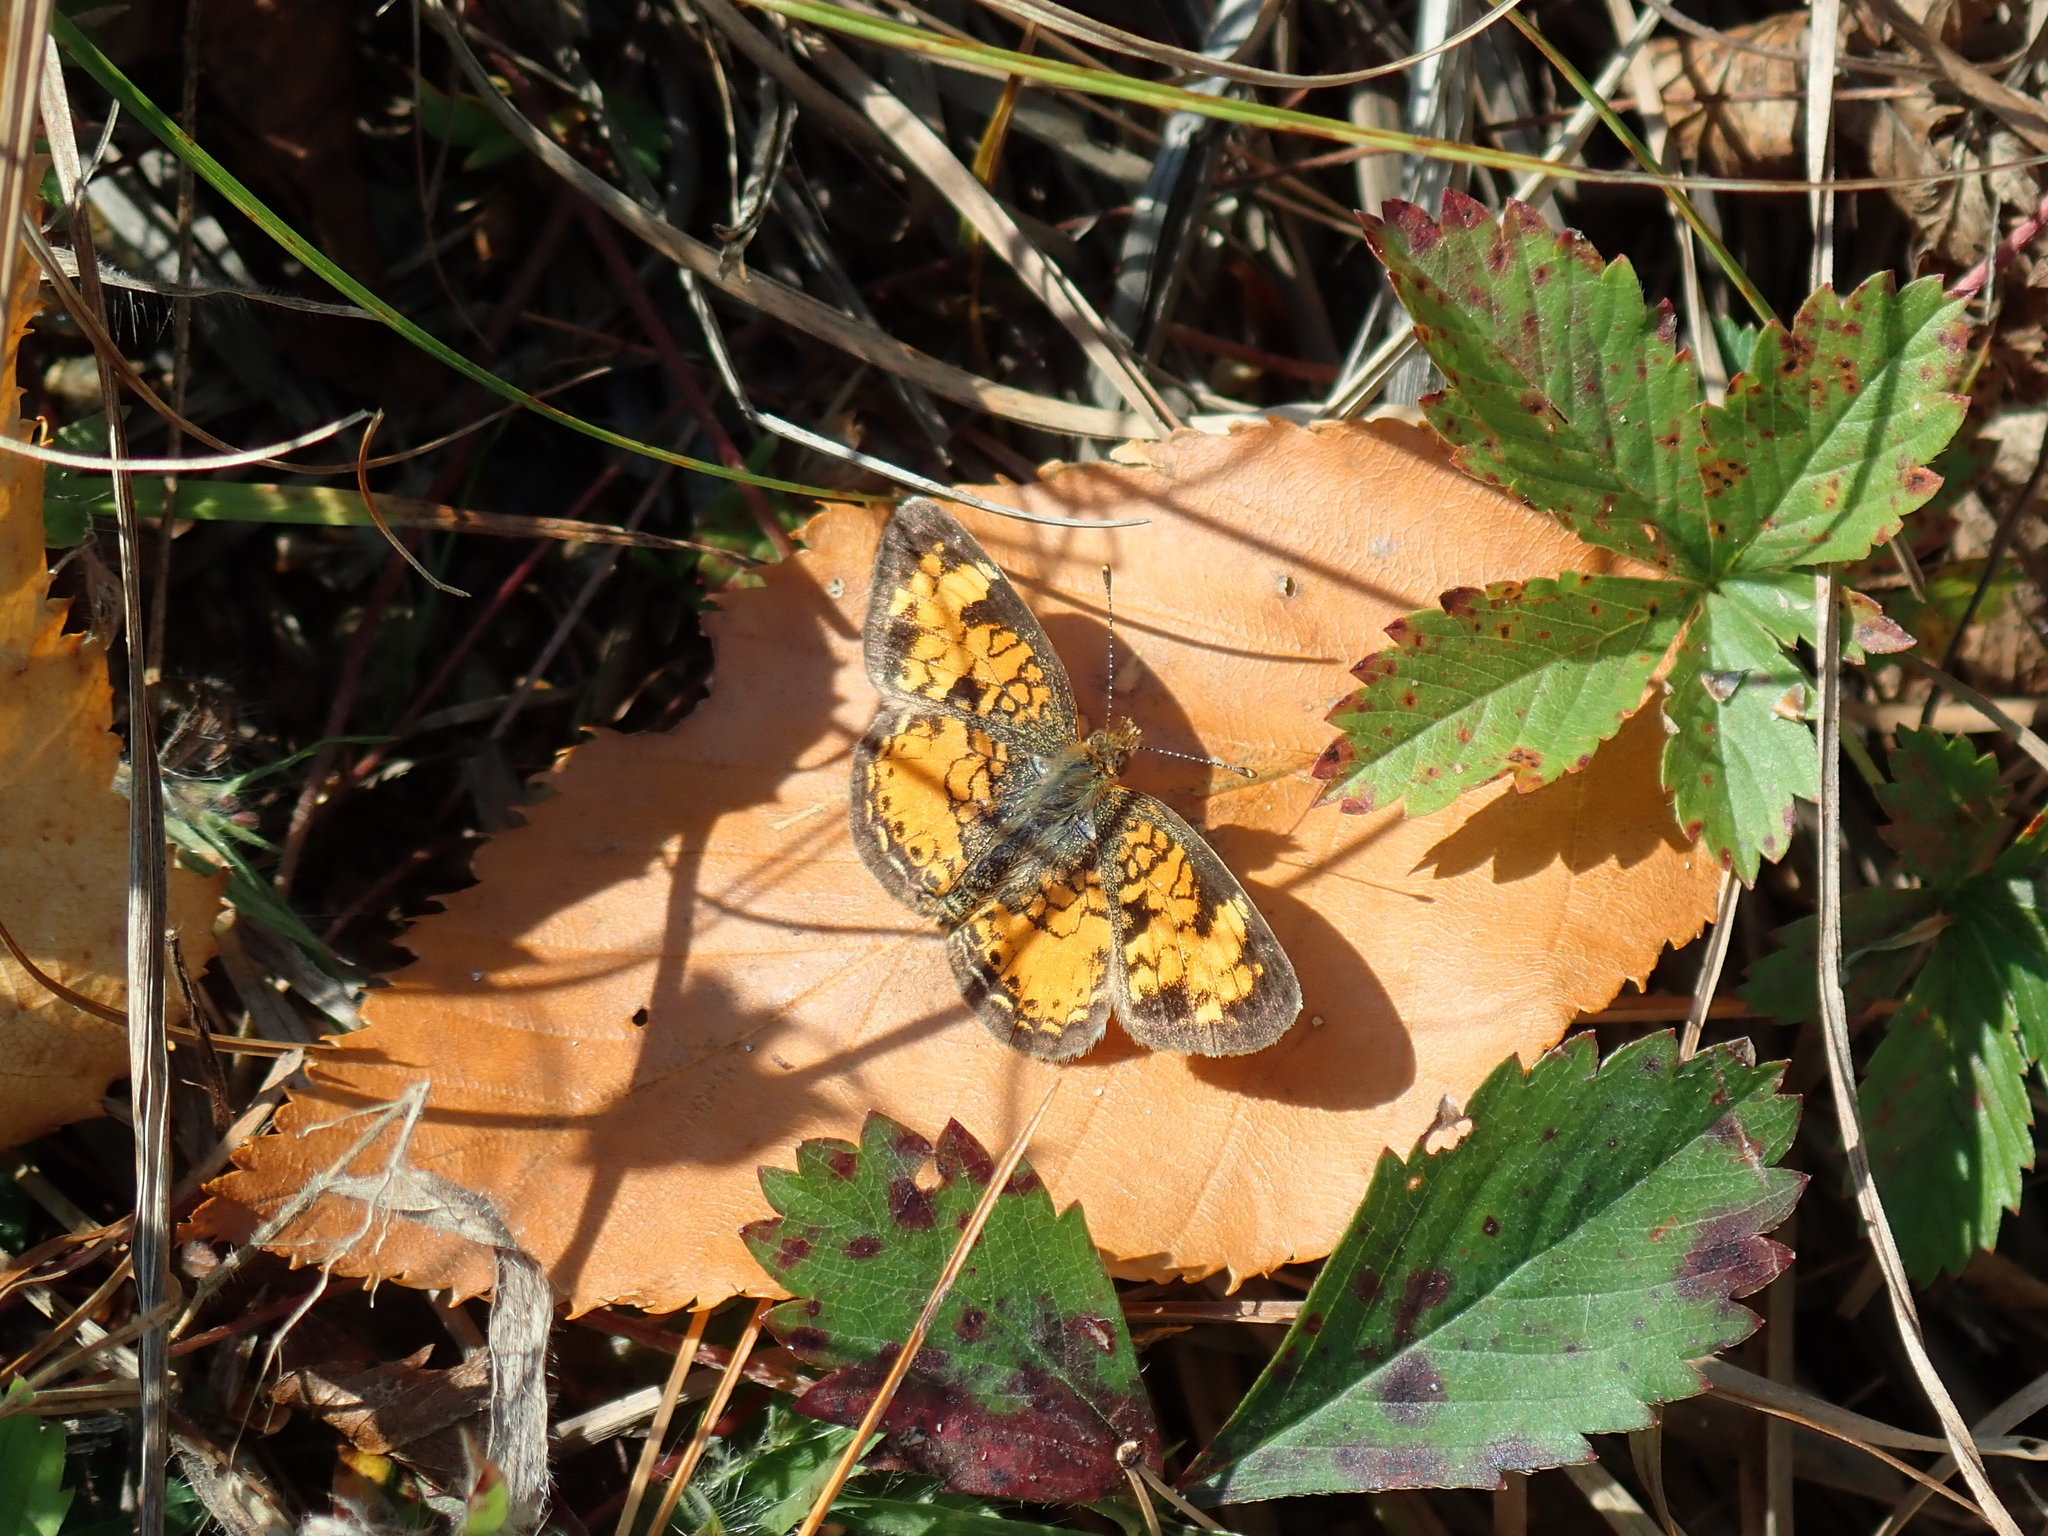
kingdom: Animalia
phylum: Arthropoda
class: Insecta
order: Lepidoptera
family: Nymphalidae
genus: Phyciodes
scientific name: Phyciodes
